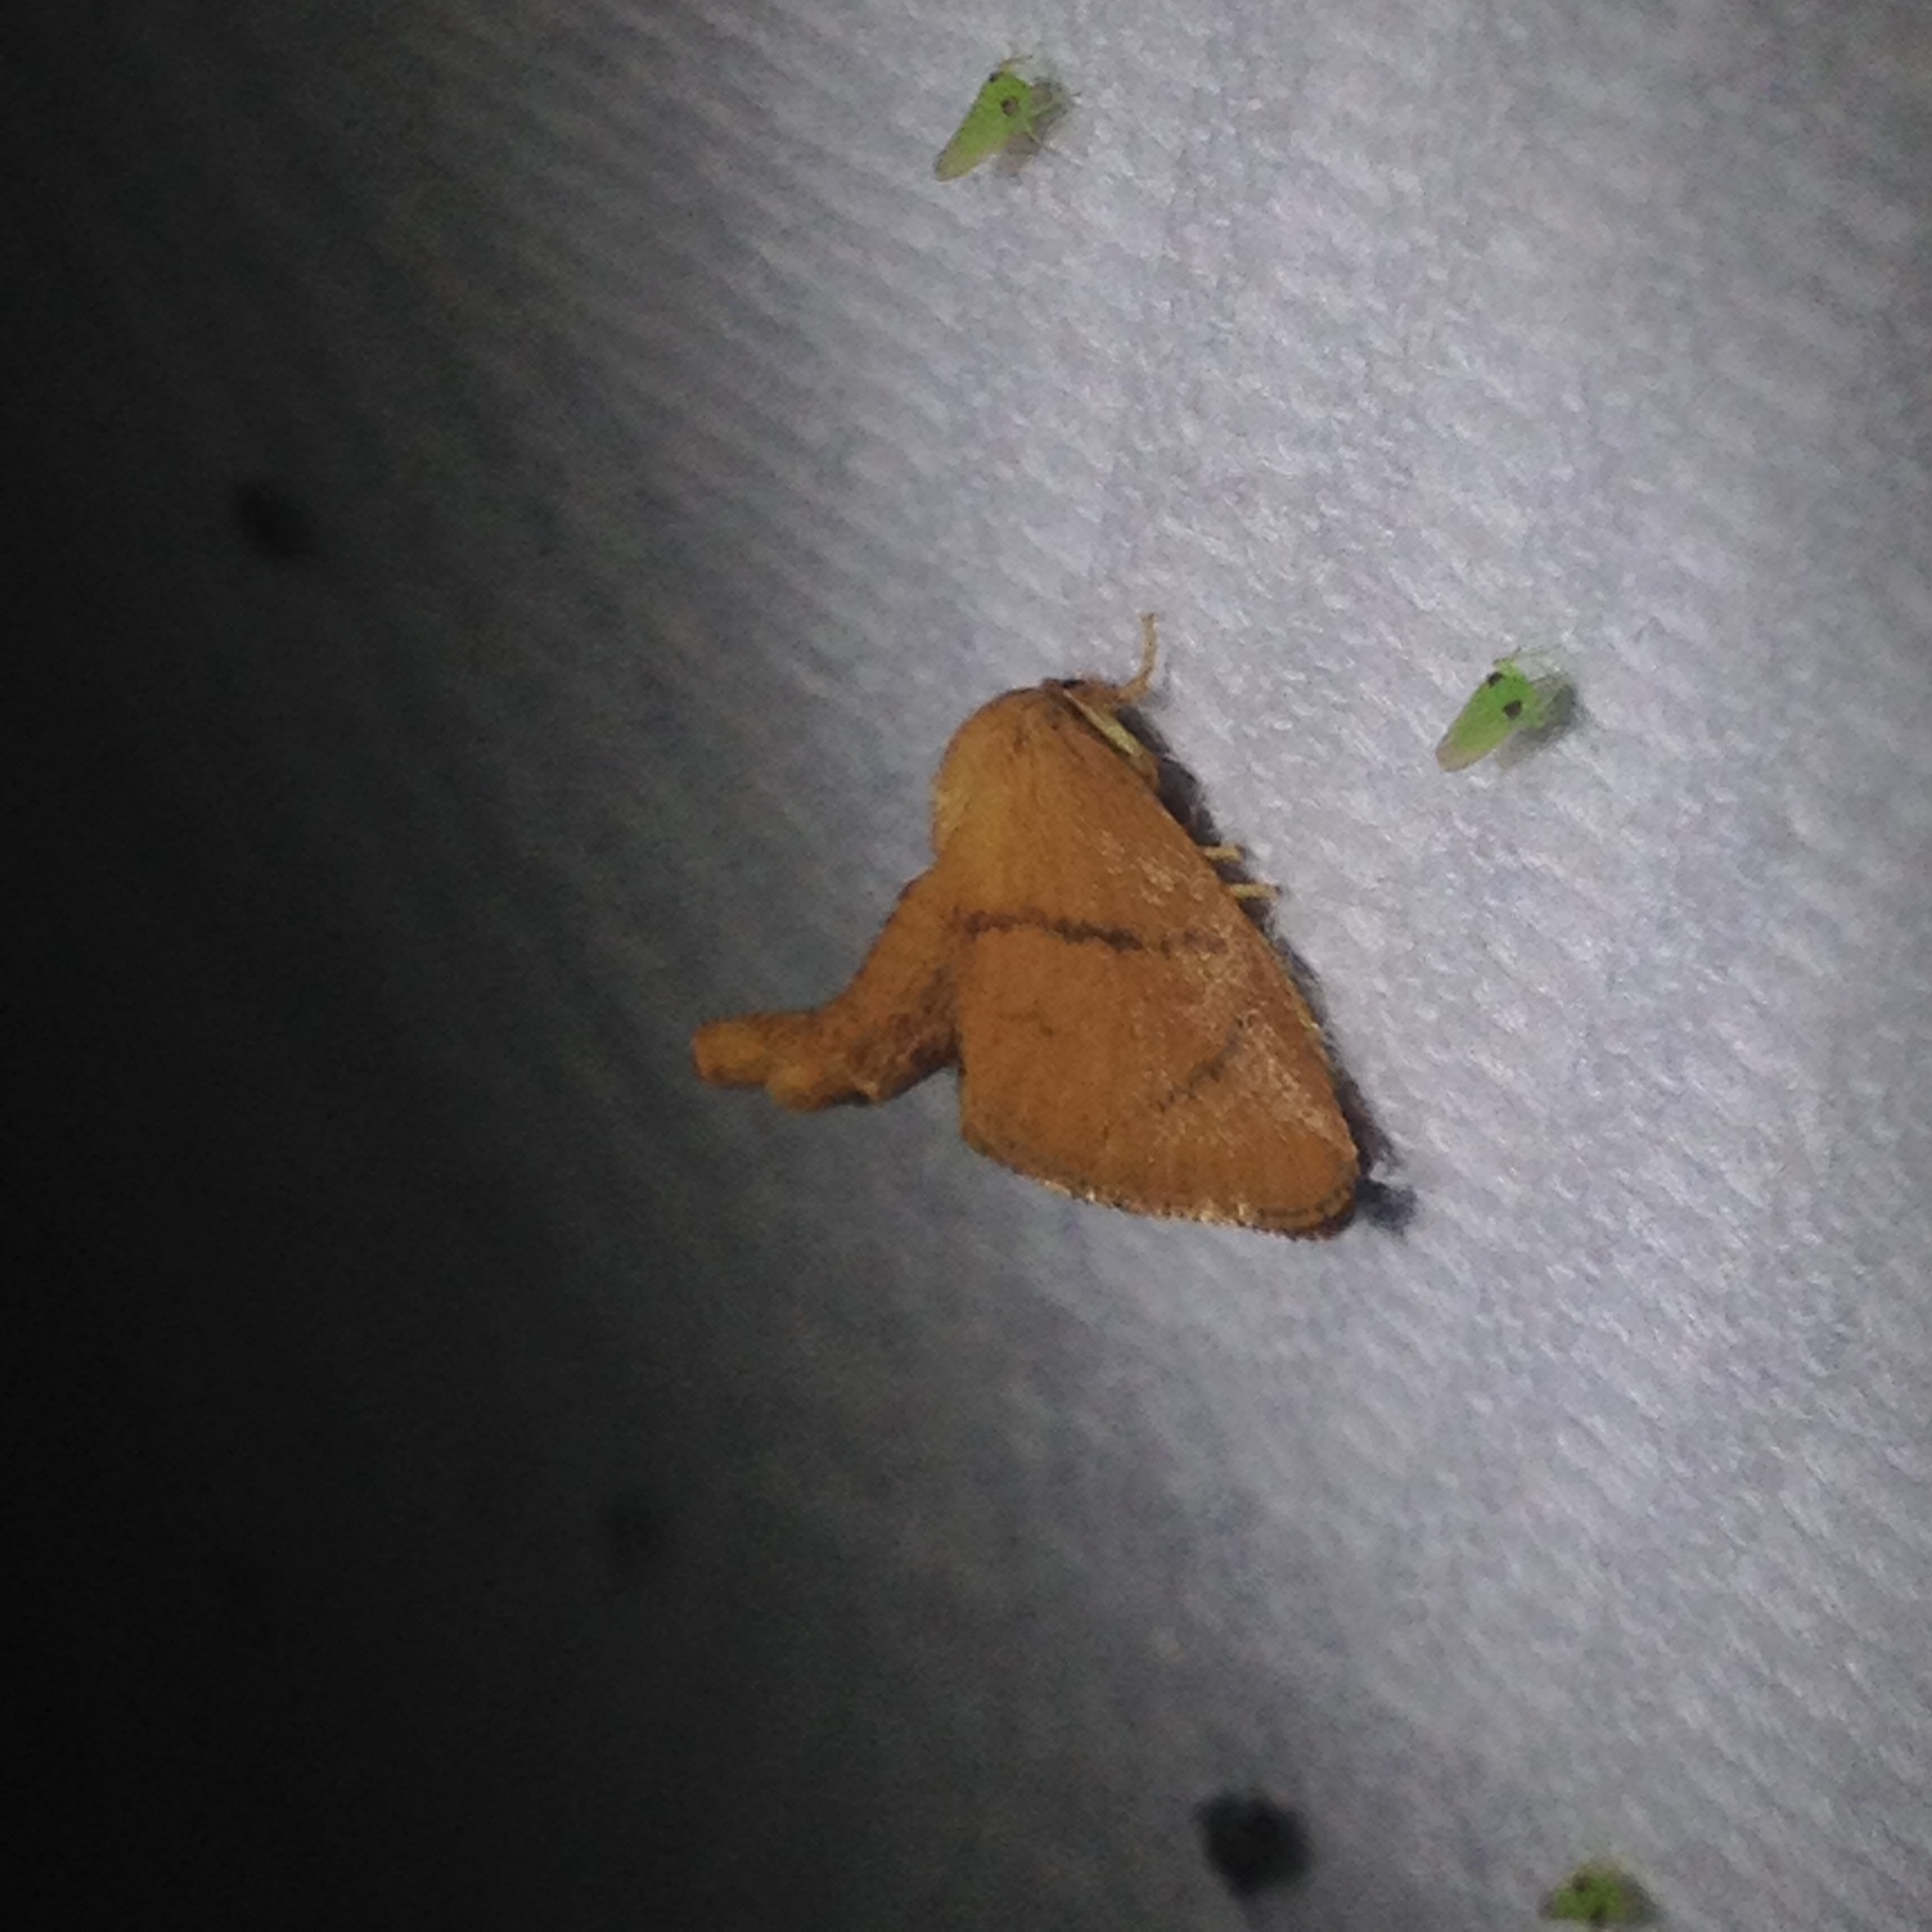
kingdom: Animalia
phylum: Arthropoda
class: Insecta
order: Lepidoptera
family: Limacodidae
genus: Tortricidia
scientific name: Tortricidia flexuosa
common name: Abbreviated button slug moth
